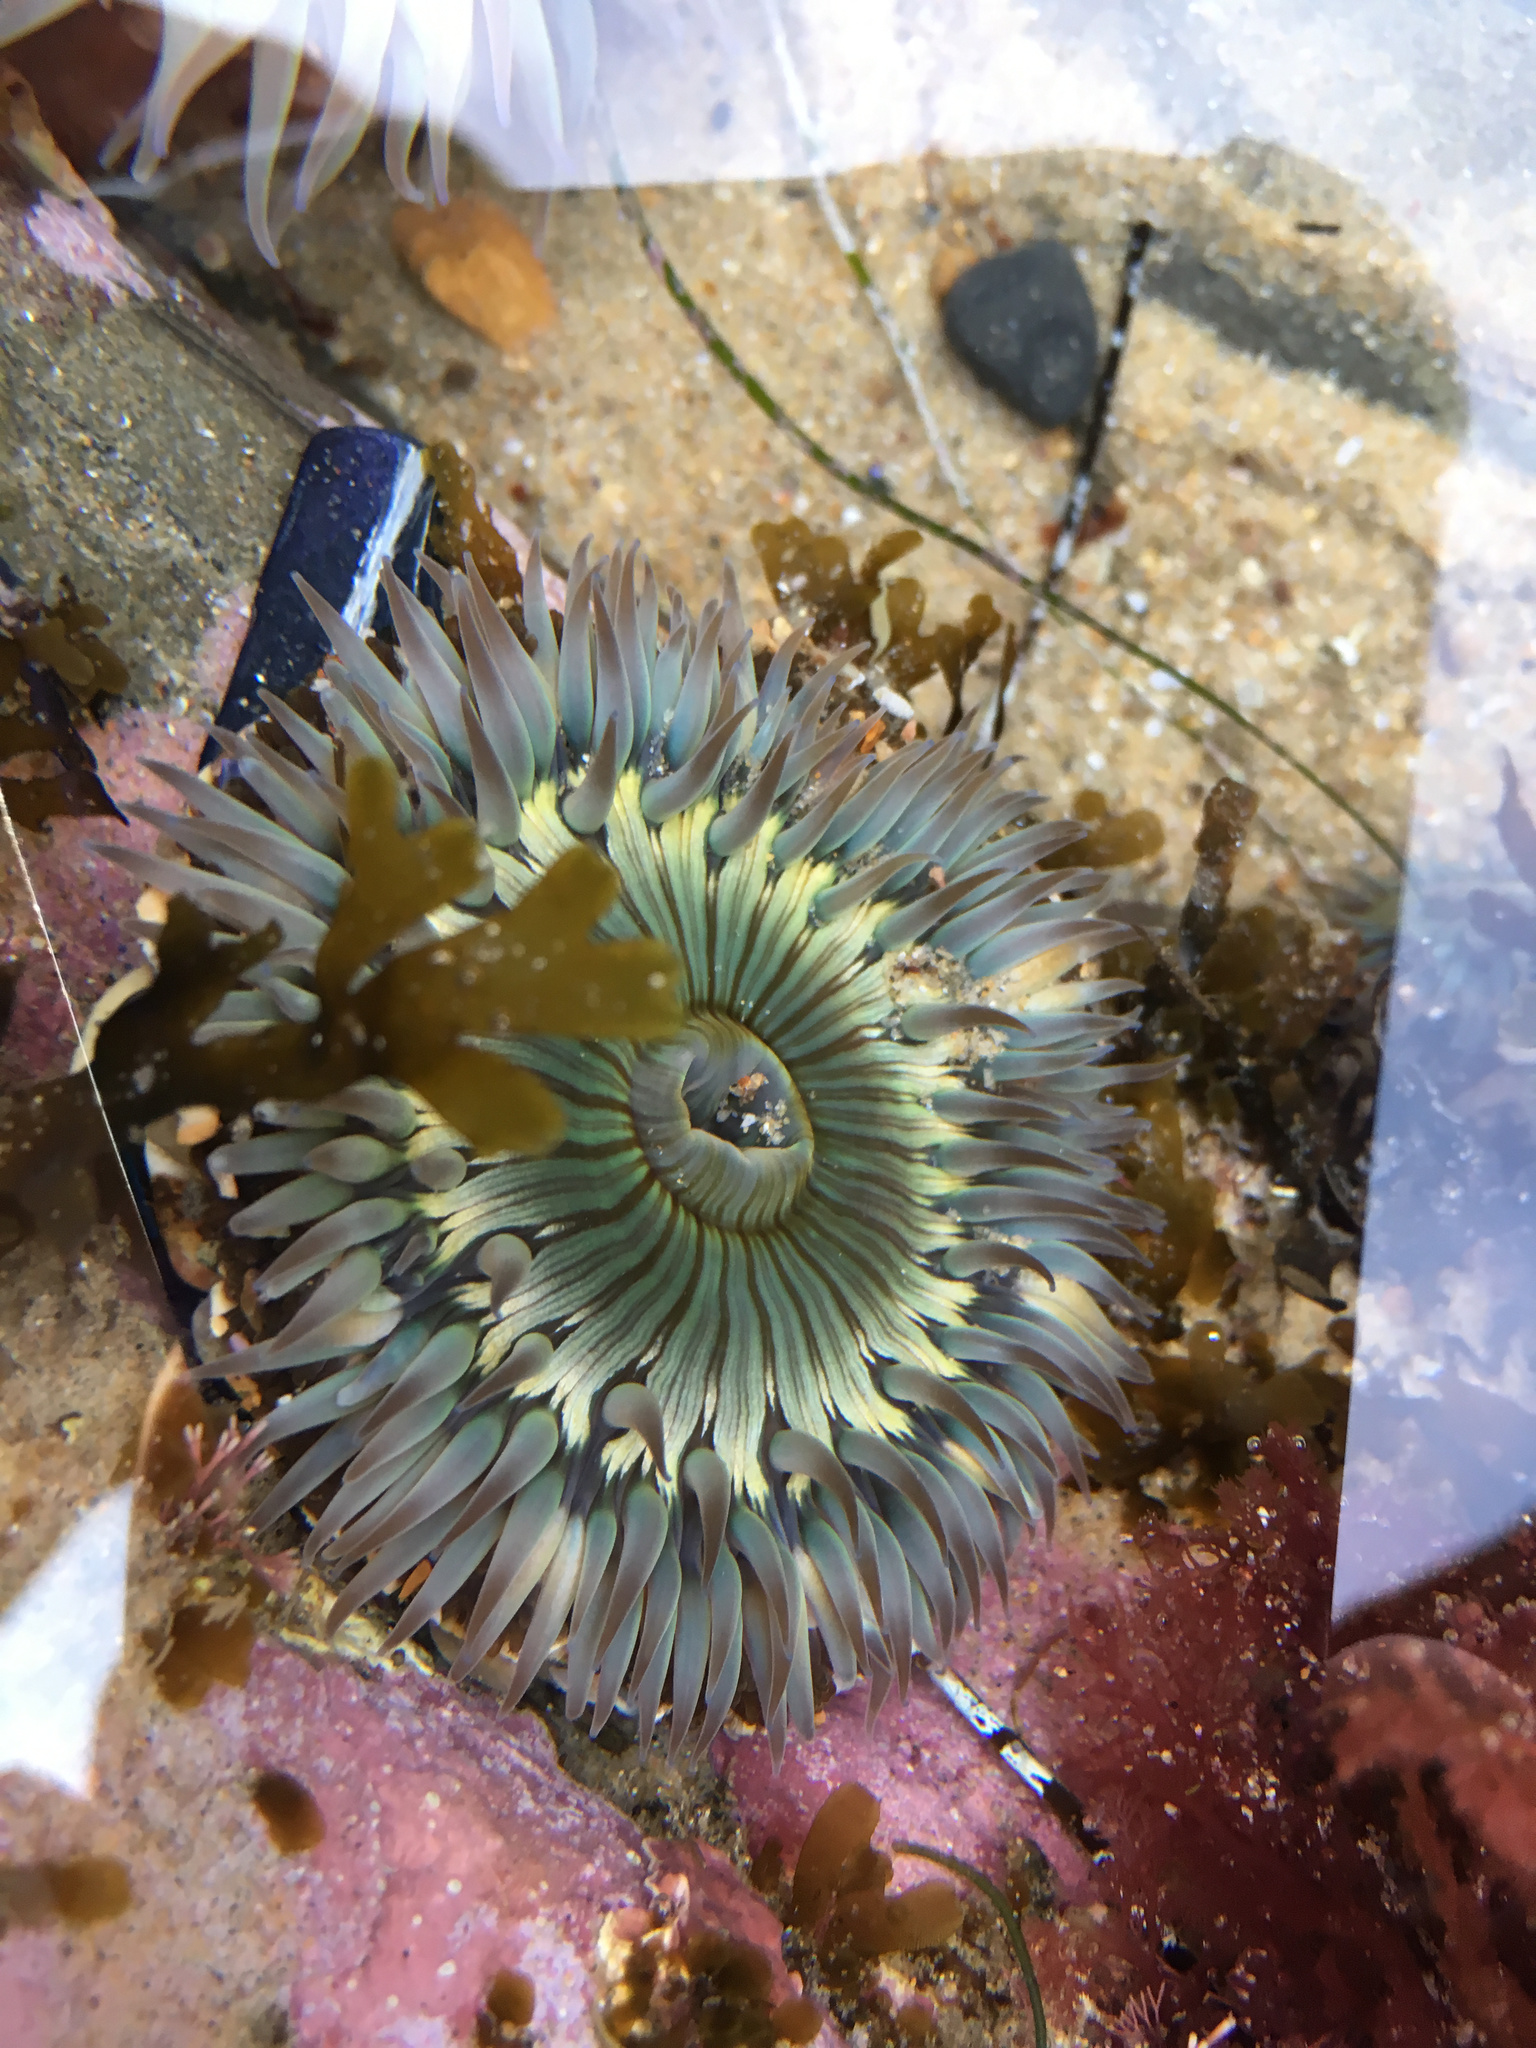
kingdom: Animalia
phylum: Cnidaria
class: Anthozoa
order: Actiniaria
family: Actiniidae
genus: Anthopleura
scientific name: Anthopleura sola
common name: Sun anemone
